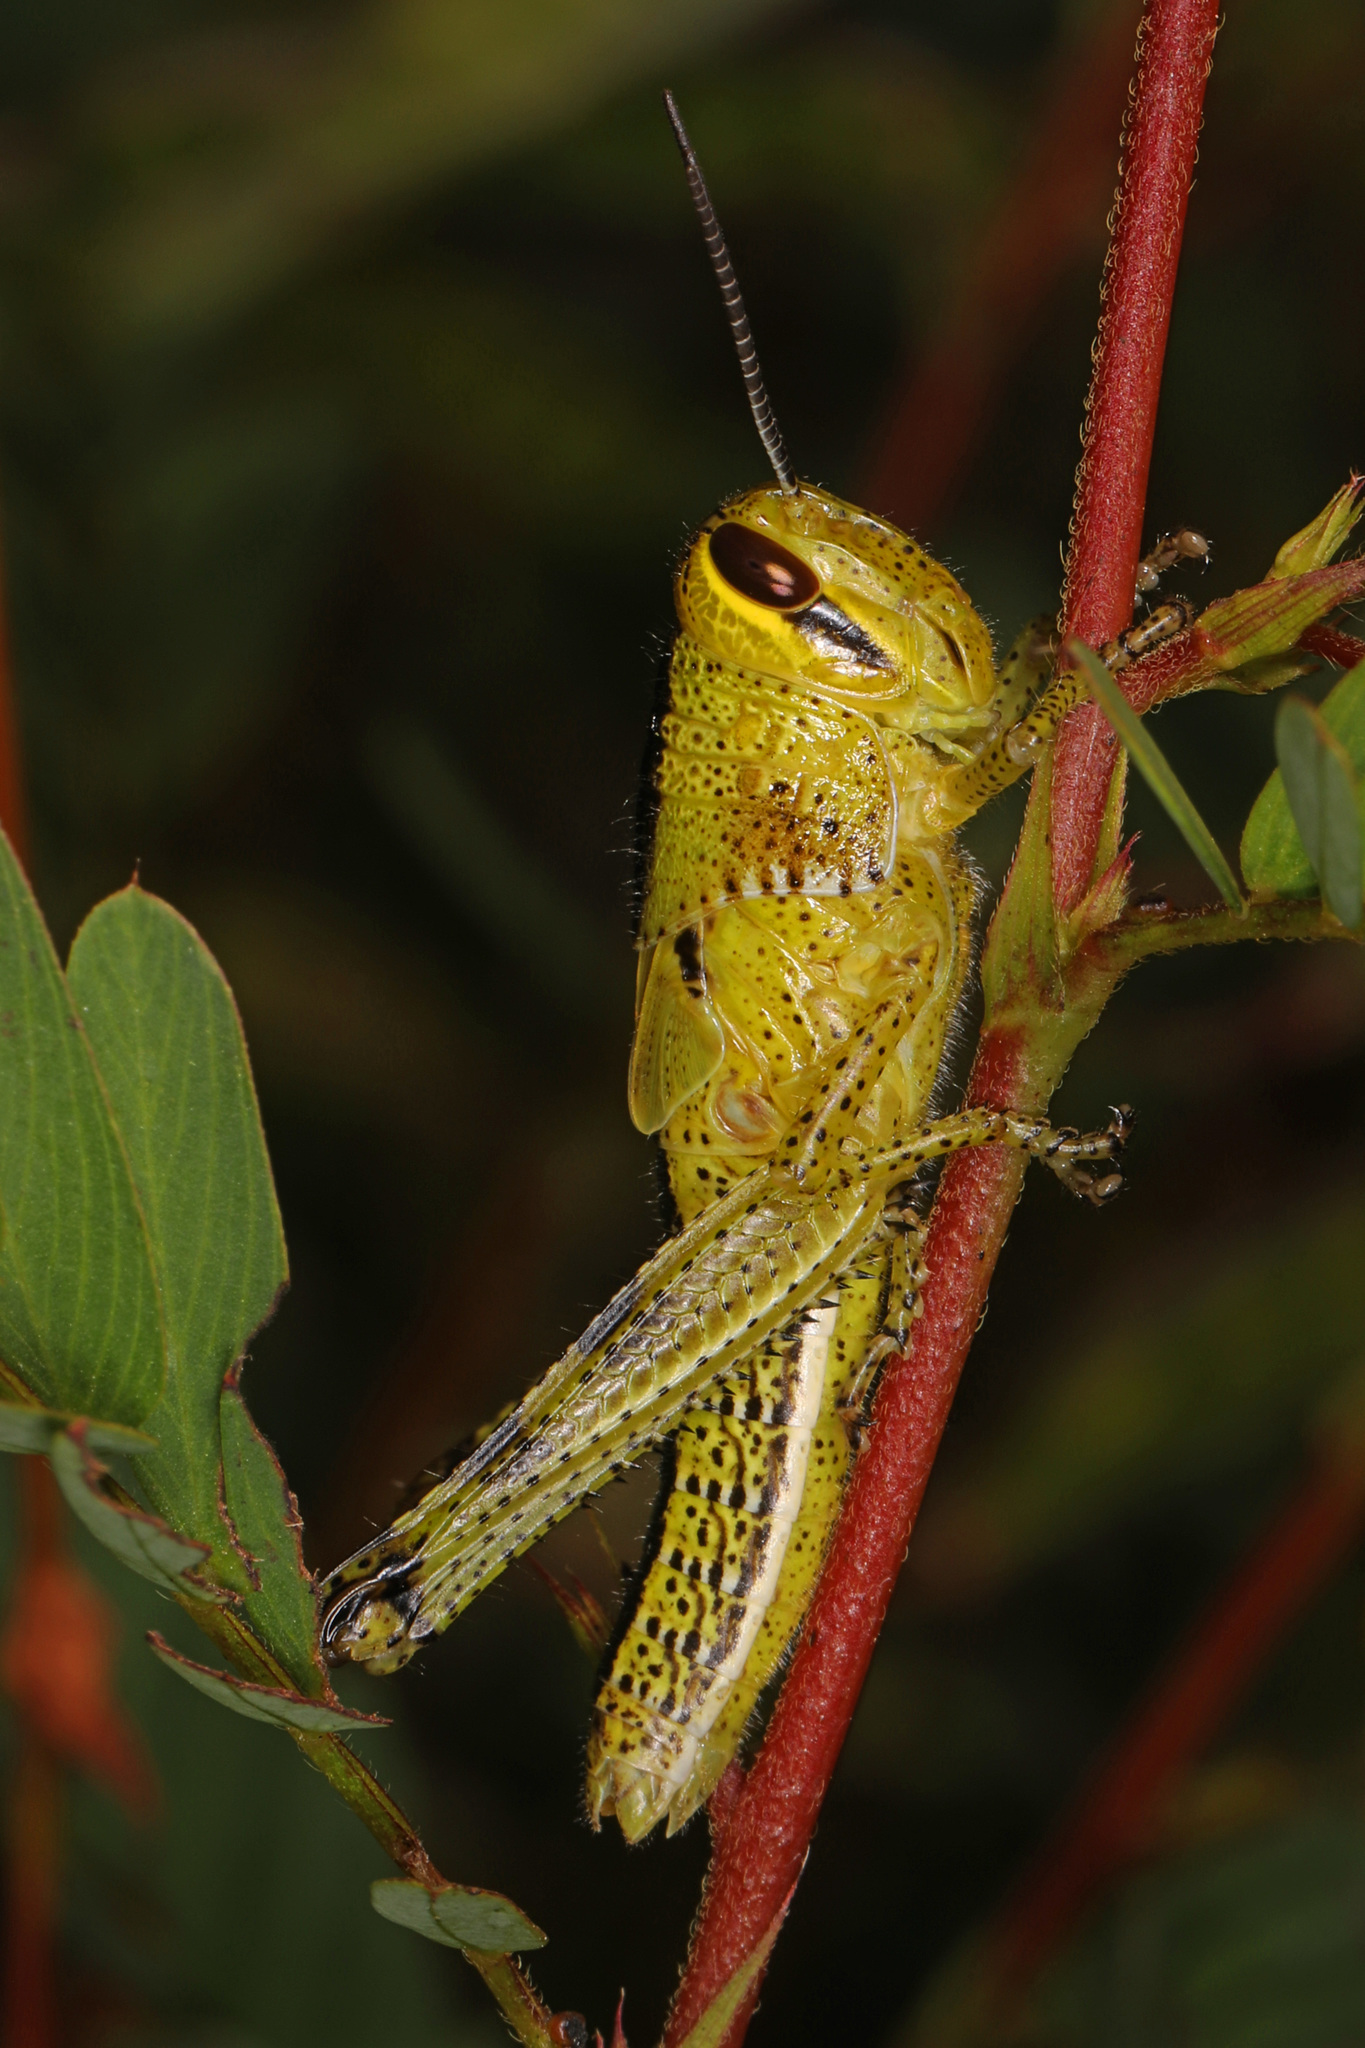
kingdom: Animalia
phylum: Arthropoda
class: Insecta
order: Orthoptera
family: Acrididae
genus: Schistocerca
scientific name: Schistocerca americana
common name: American bird locust
